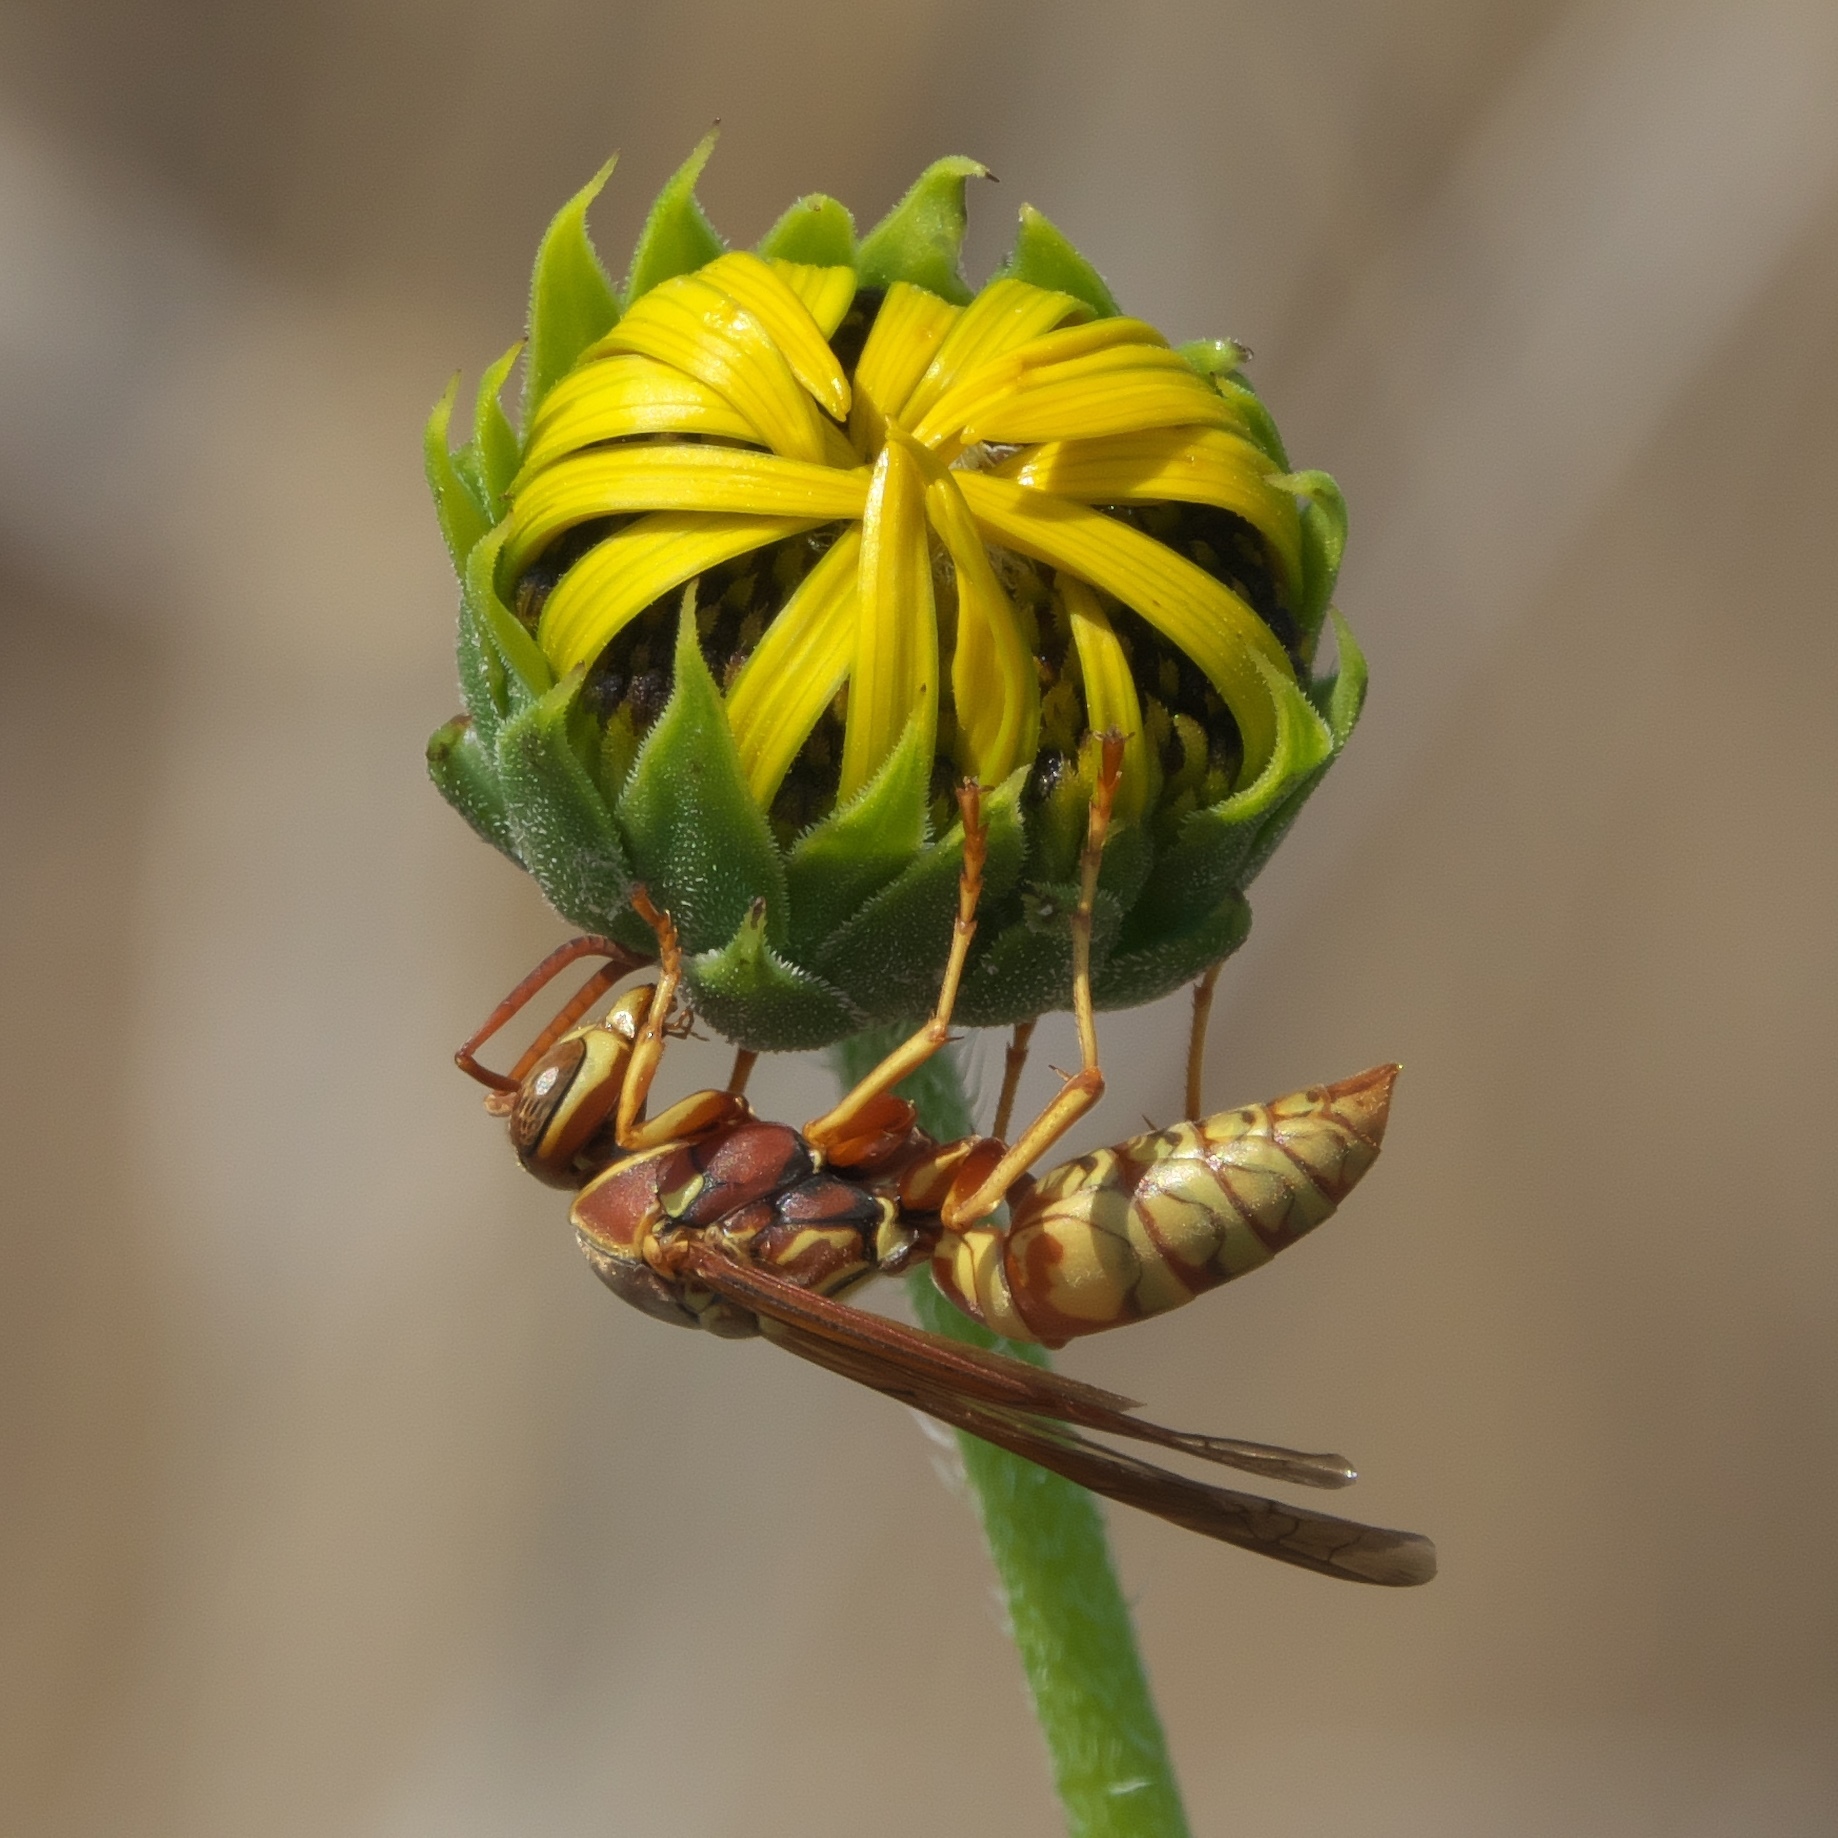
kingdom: Animalia
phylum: Arthropoda
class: Insecta
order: Hymenoptera
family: Eumenidae
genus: Polistes
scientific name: Polistes aurifer
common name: Paper wasp
